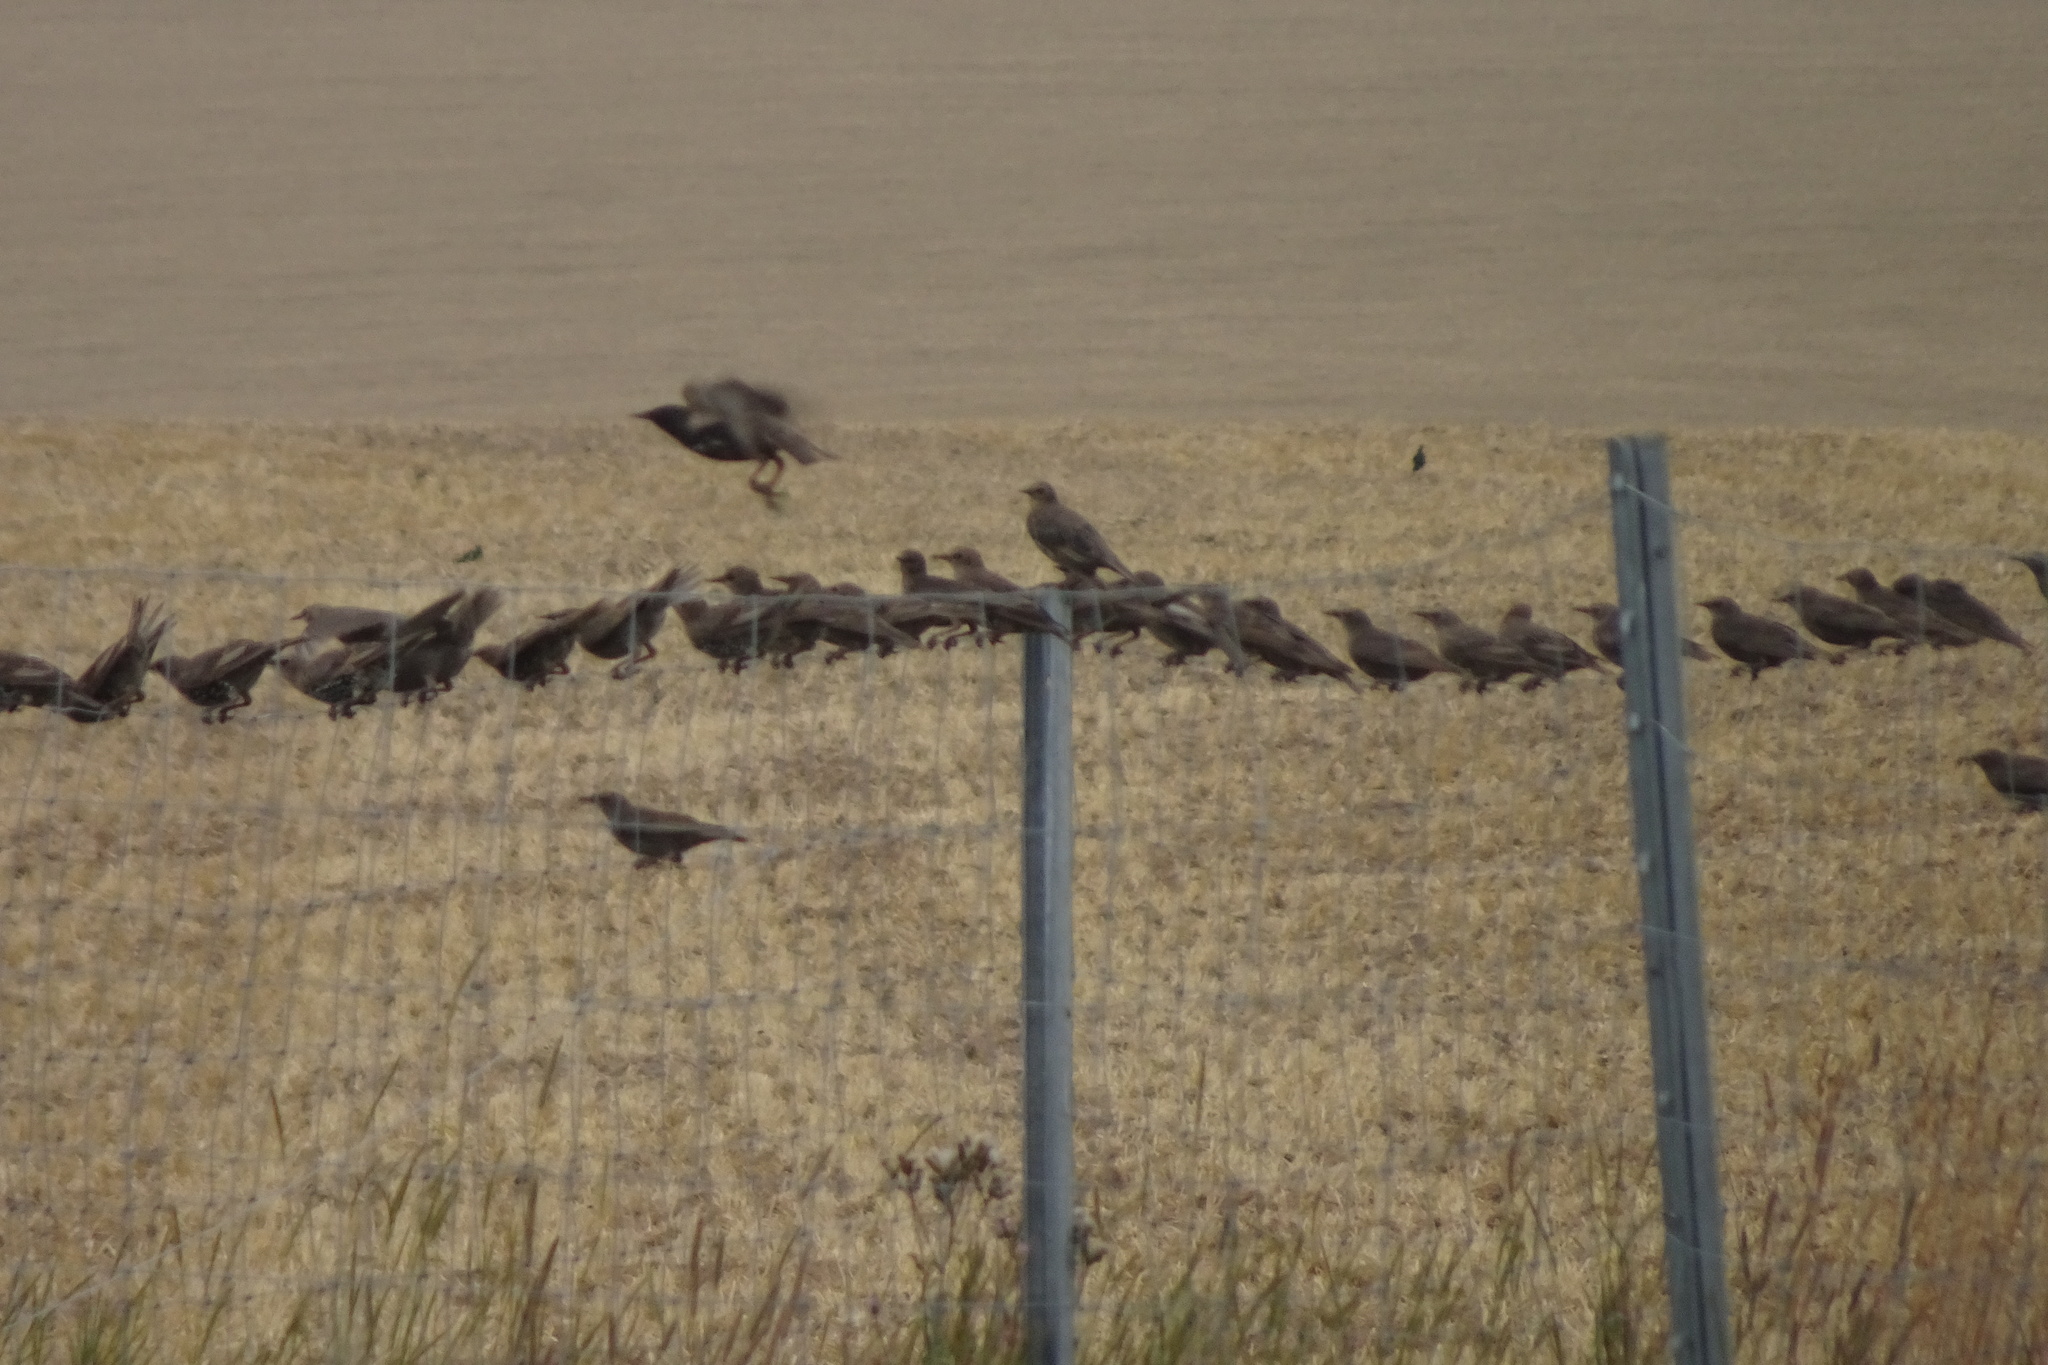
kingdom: Animalia
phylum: Chordata
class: Aves
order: Passeriformes
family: Sturnidae
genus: Sturnus
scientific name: Sturnus vulgaris
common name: Common starling
